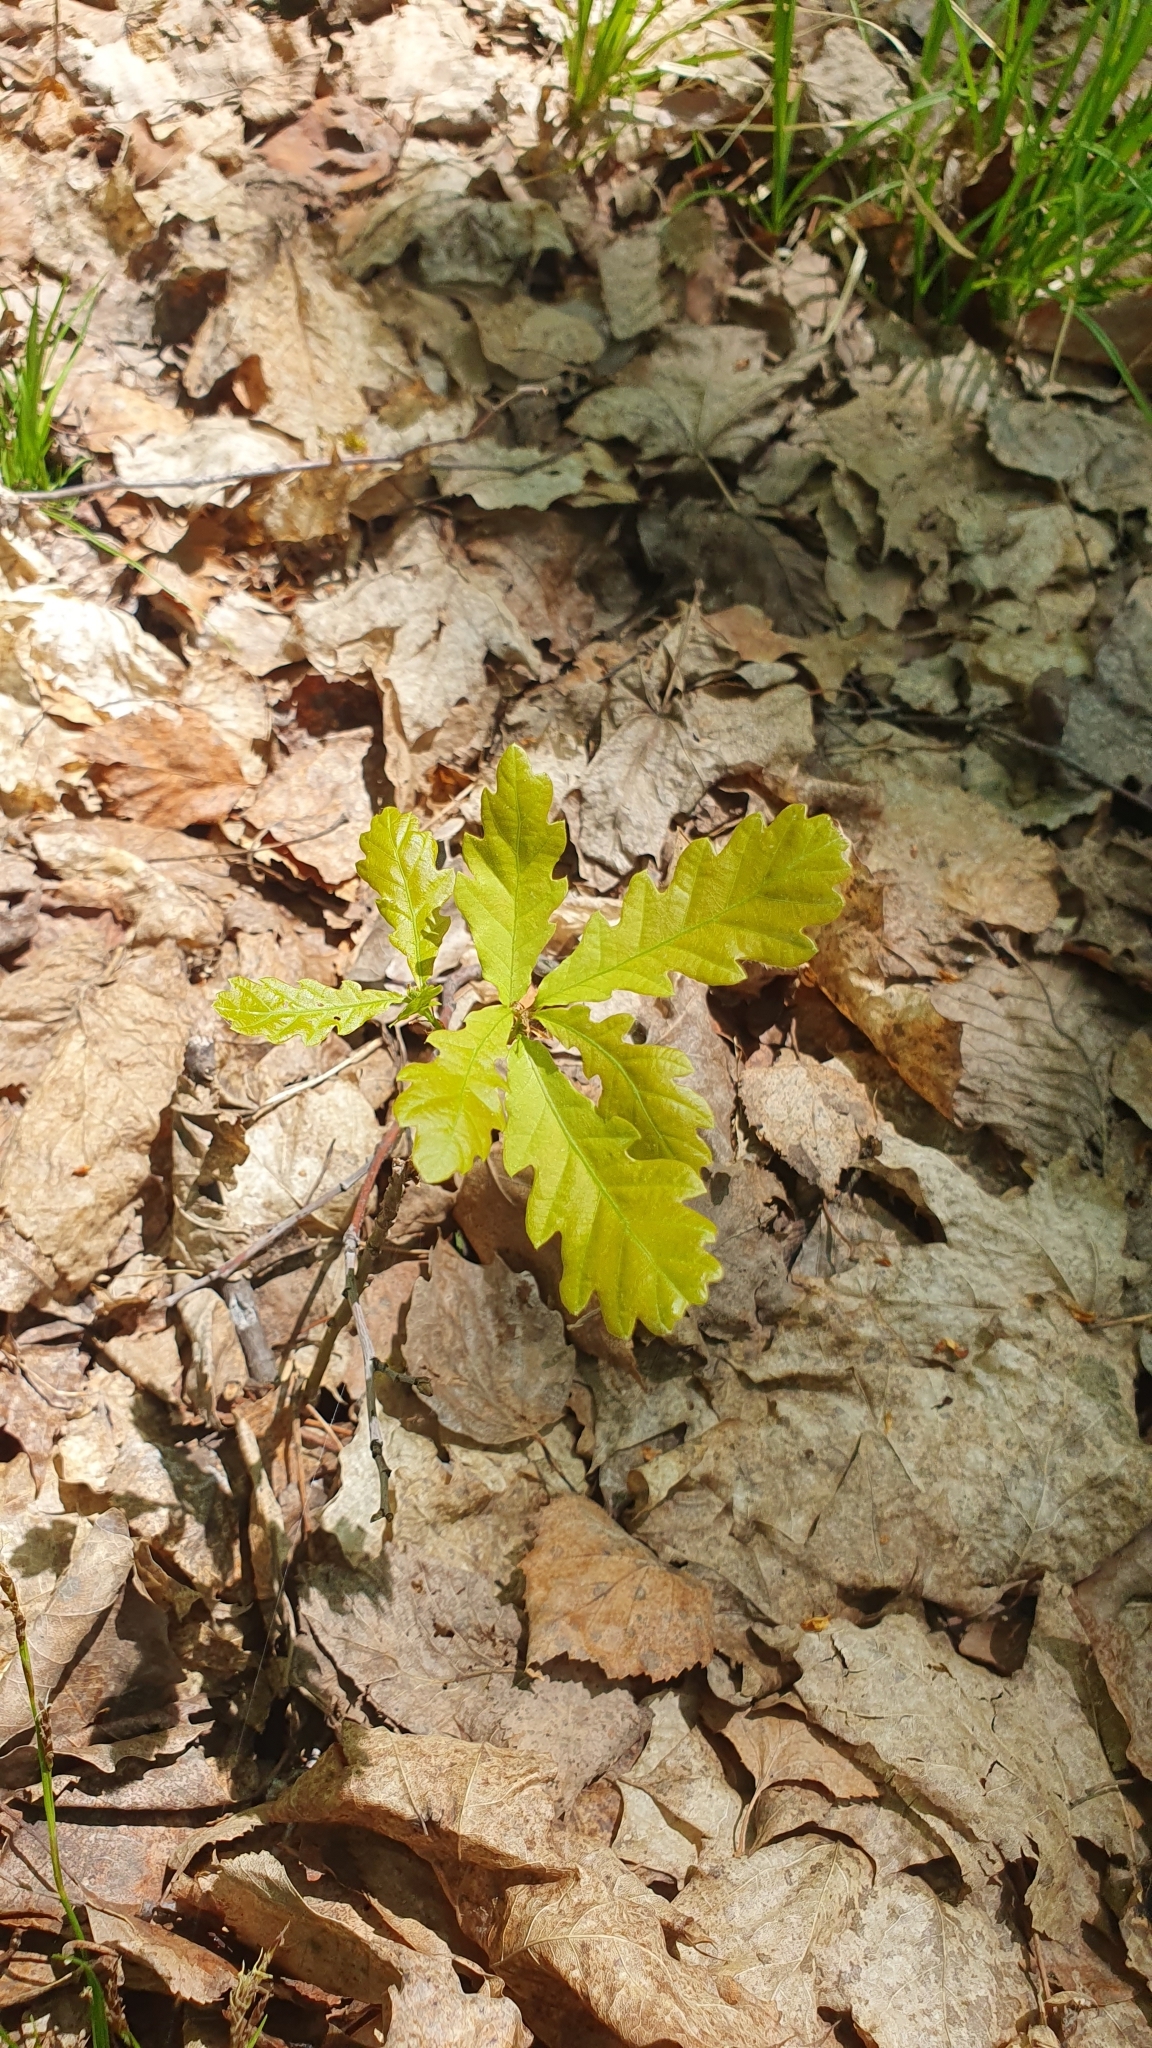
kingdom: Plantae
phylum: Tracheophyta
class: Magnoliopsida
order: Fagales
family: Fagaceae
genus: Quercus
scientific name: Quercus robur
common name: Pedunculate oak
